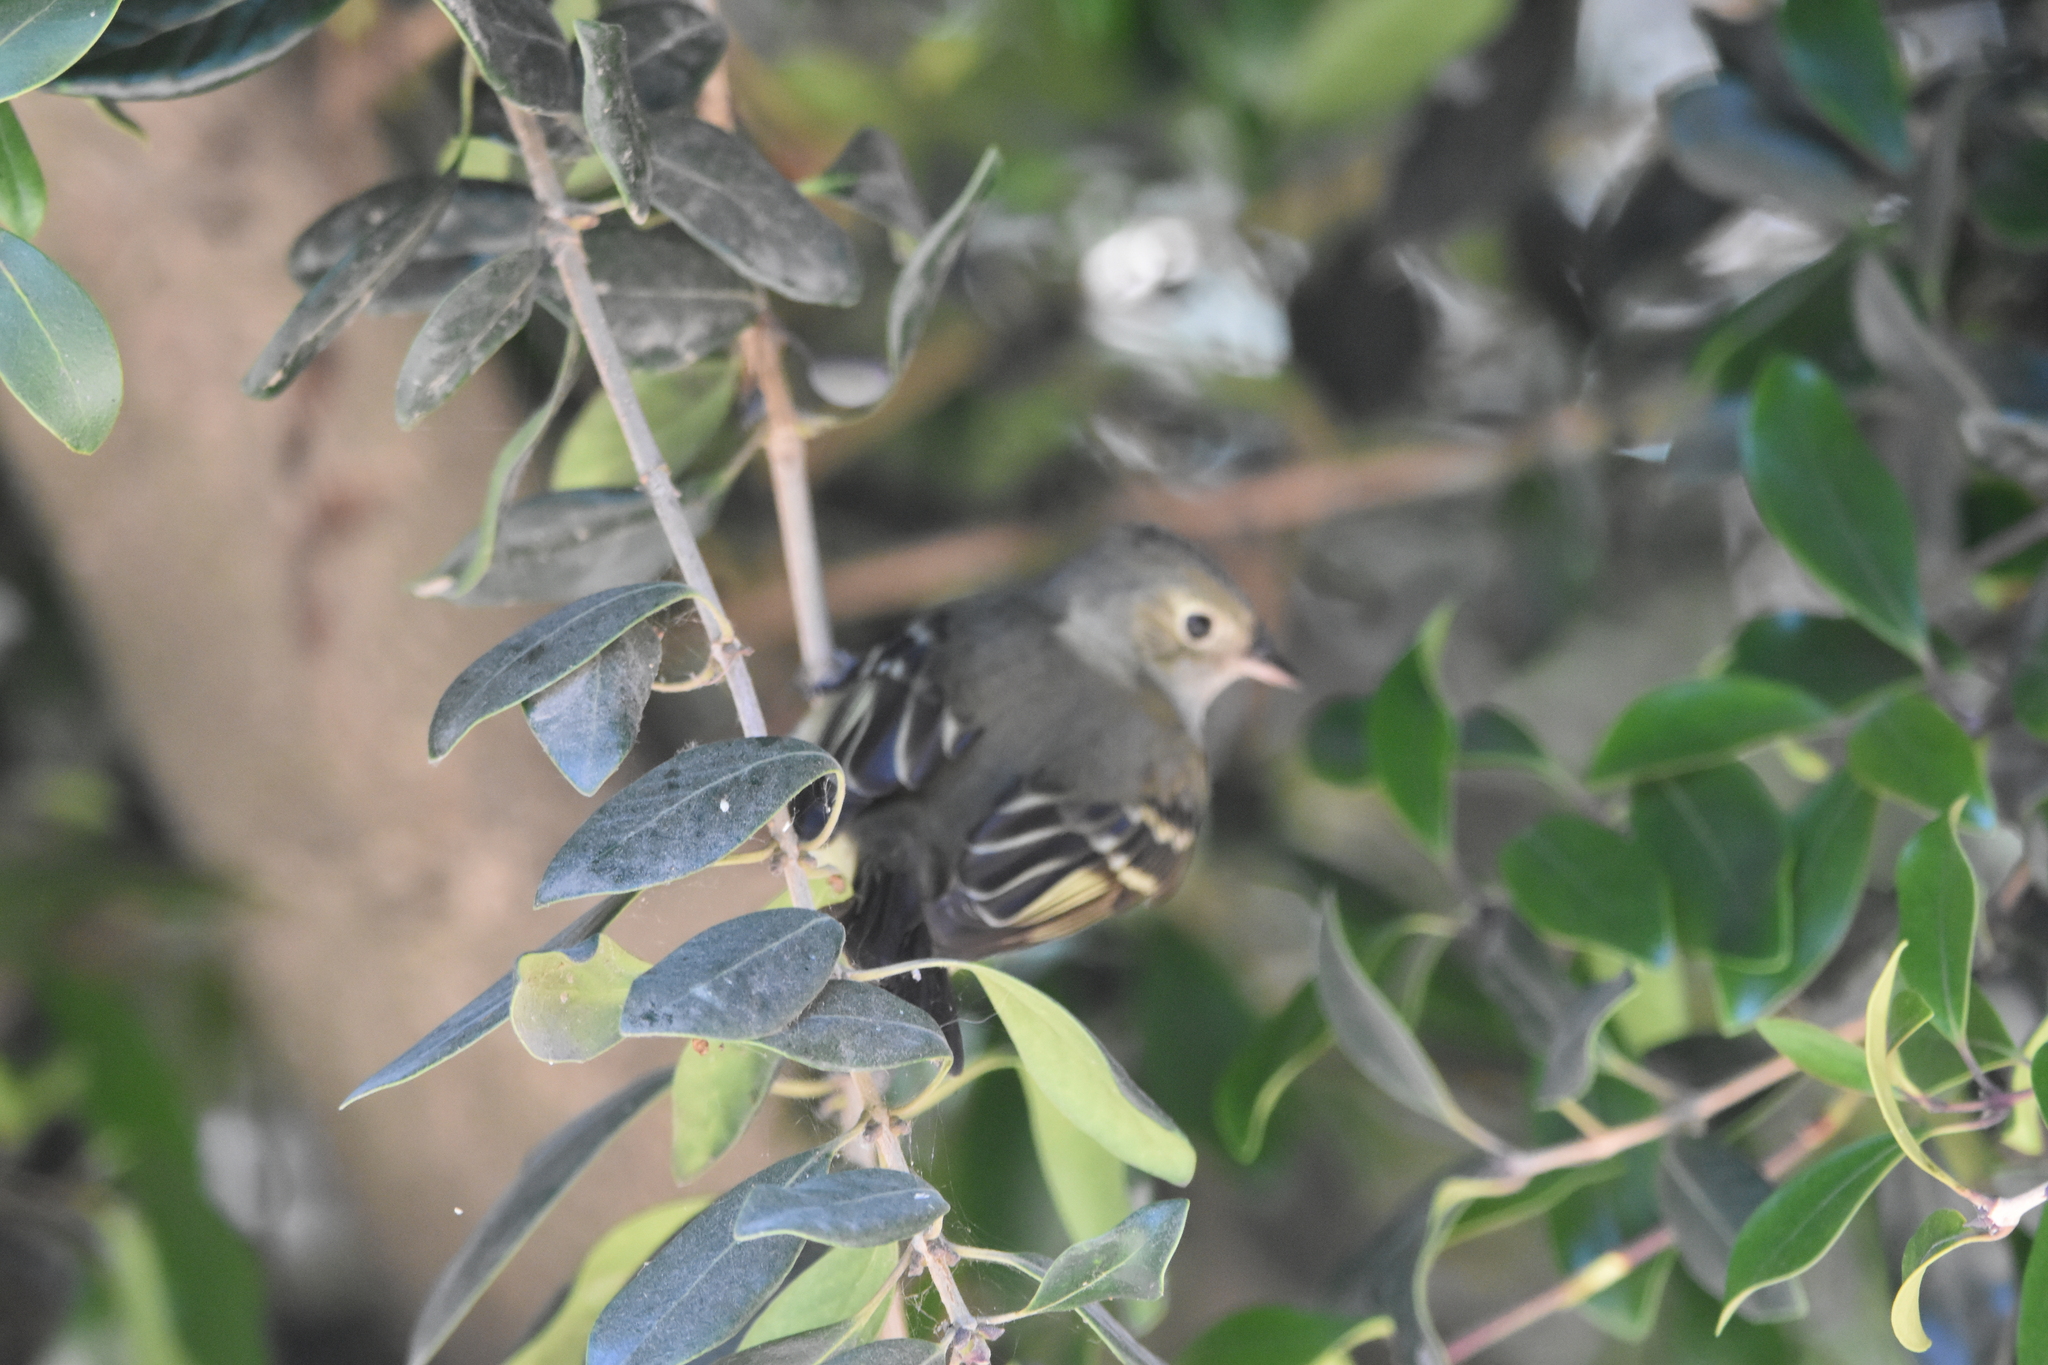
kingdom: Animalia
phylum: Chordata
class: Aves
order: Passeriformes
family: Tyrannidae
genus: Elaenia
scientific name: Elaenia albiceps
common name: White-crested elaenia
